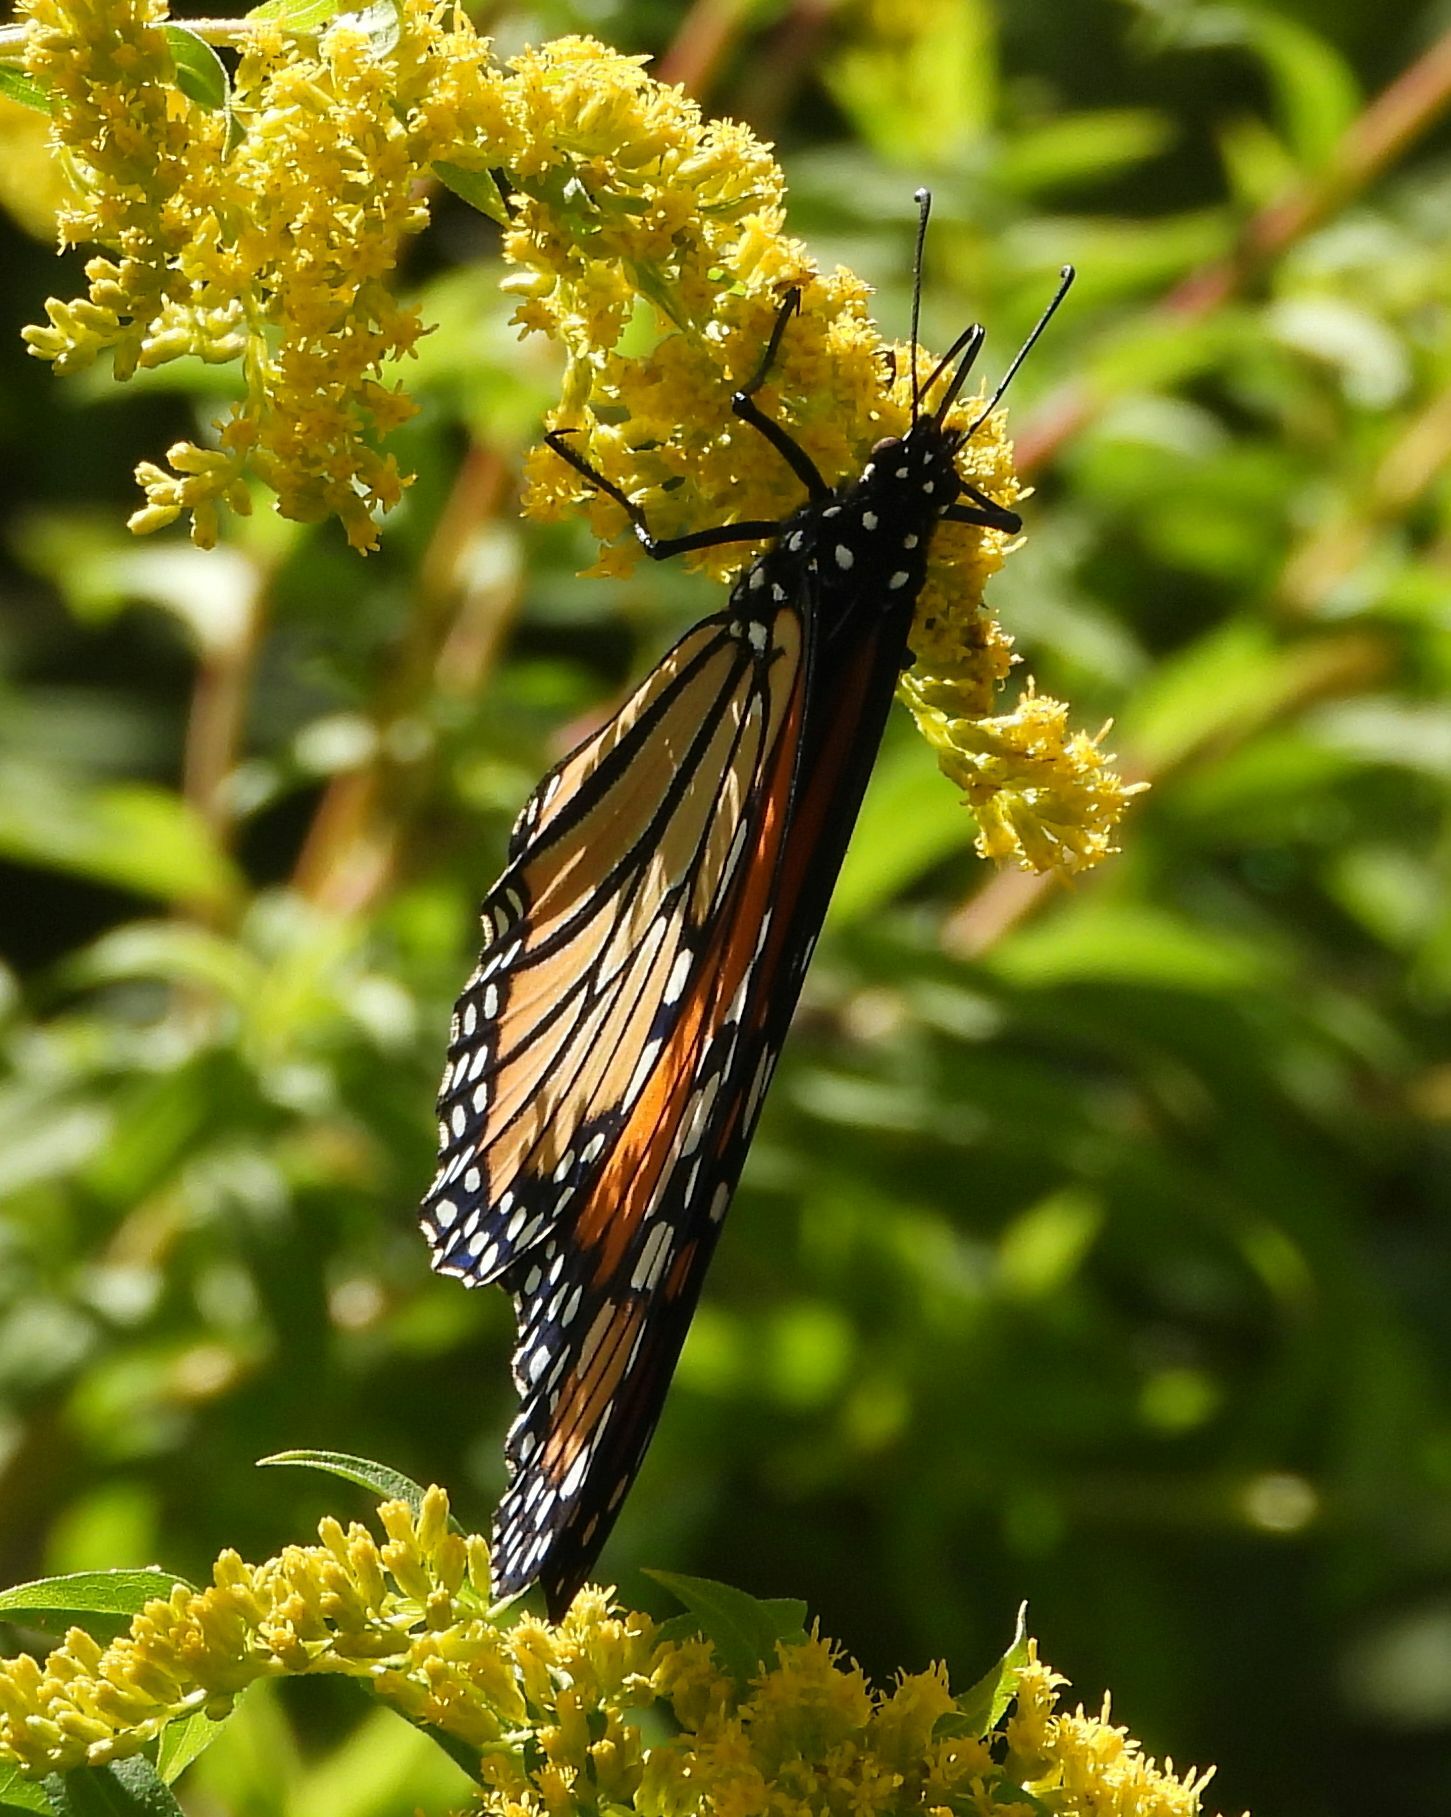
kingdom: Animalia
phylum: Arthropoda
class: Insecta
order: Lepidoptera
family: Nymphalidae
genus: Danaus
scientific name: Danaus plexippus
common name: Monarch
